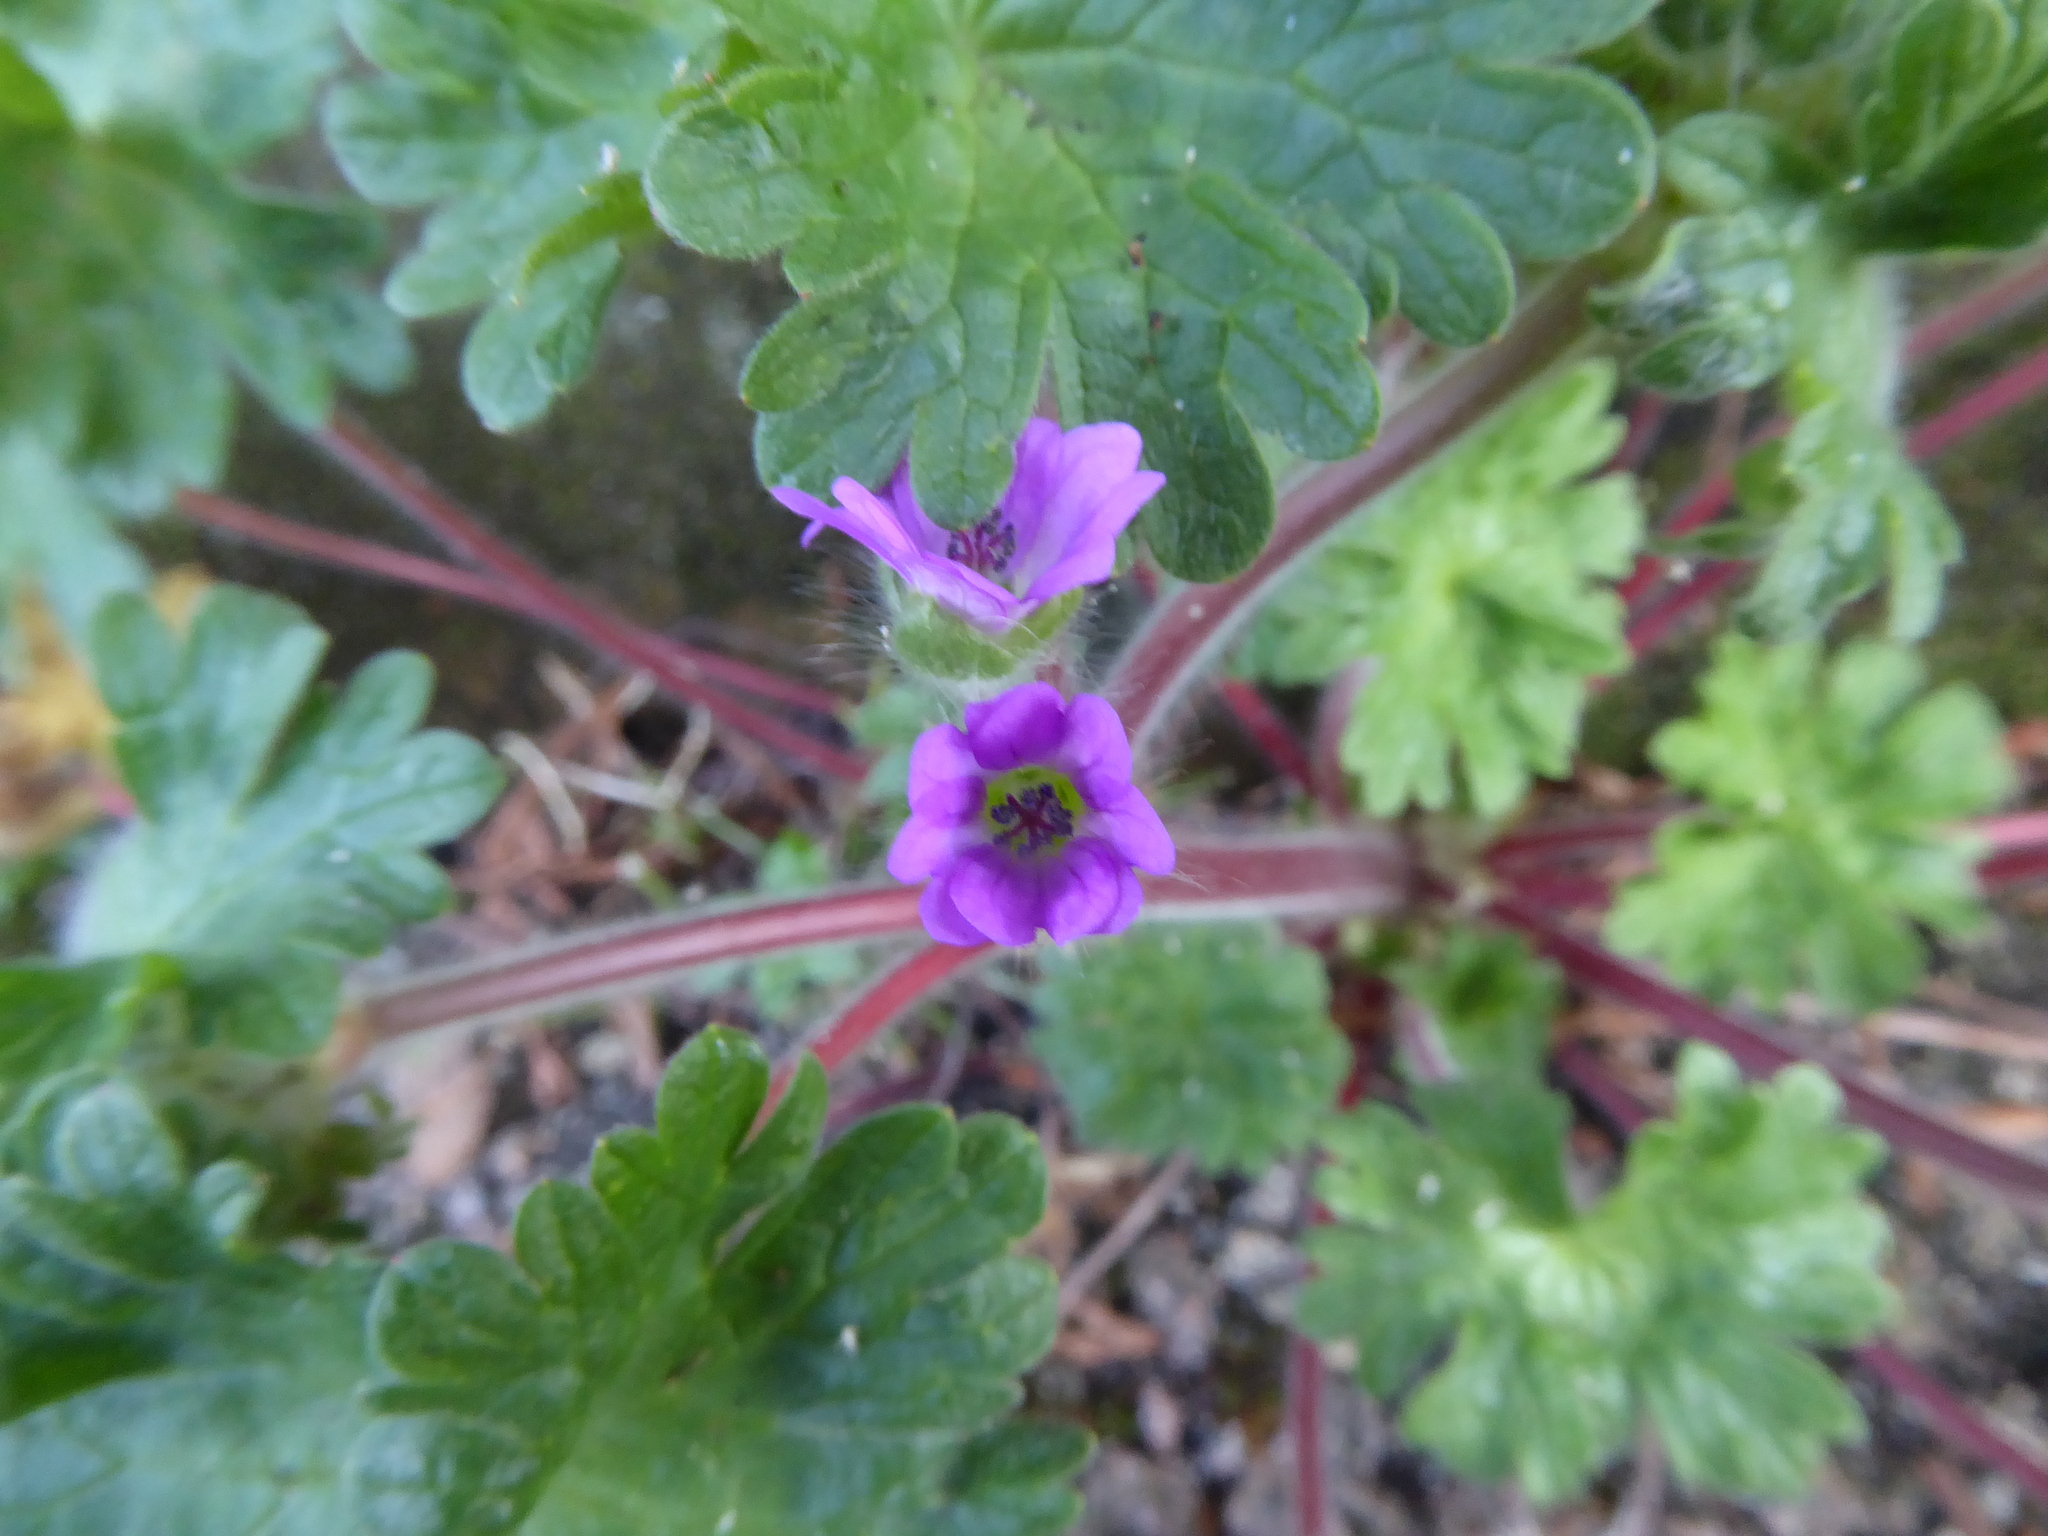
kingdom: Plantae
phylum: Tracheophyta
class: Magnoliopsida
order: Geraniales
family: Geraniaceae
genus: Geranium
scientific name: Geranium molle
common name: Dove's-foot crane's-bill
